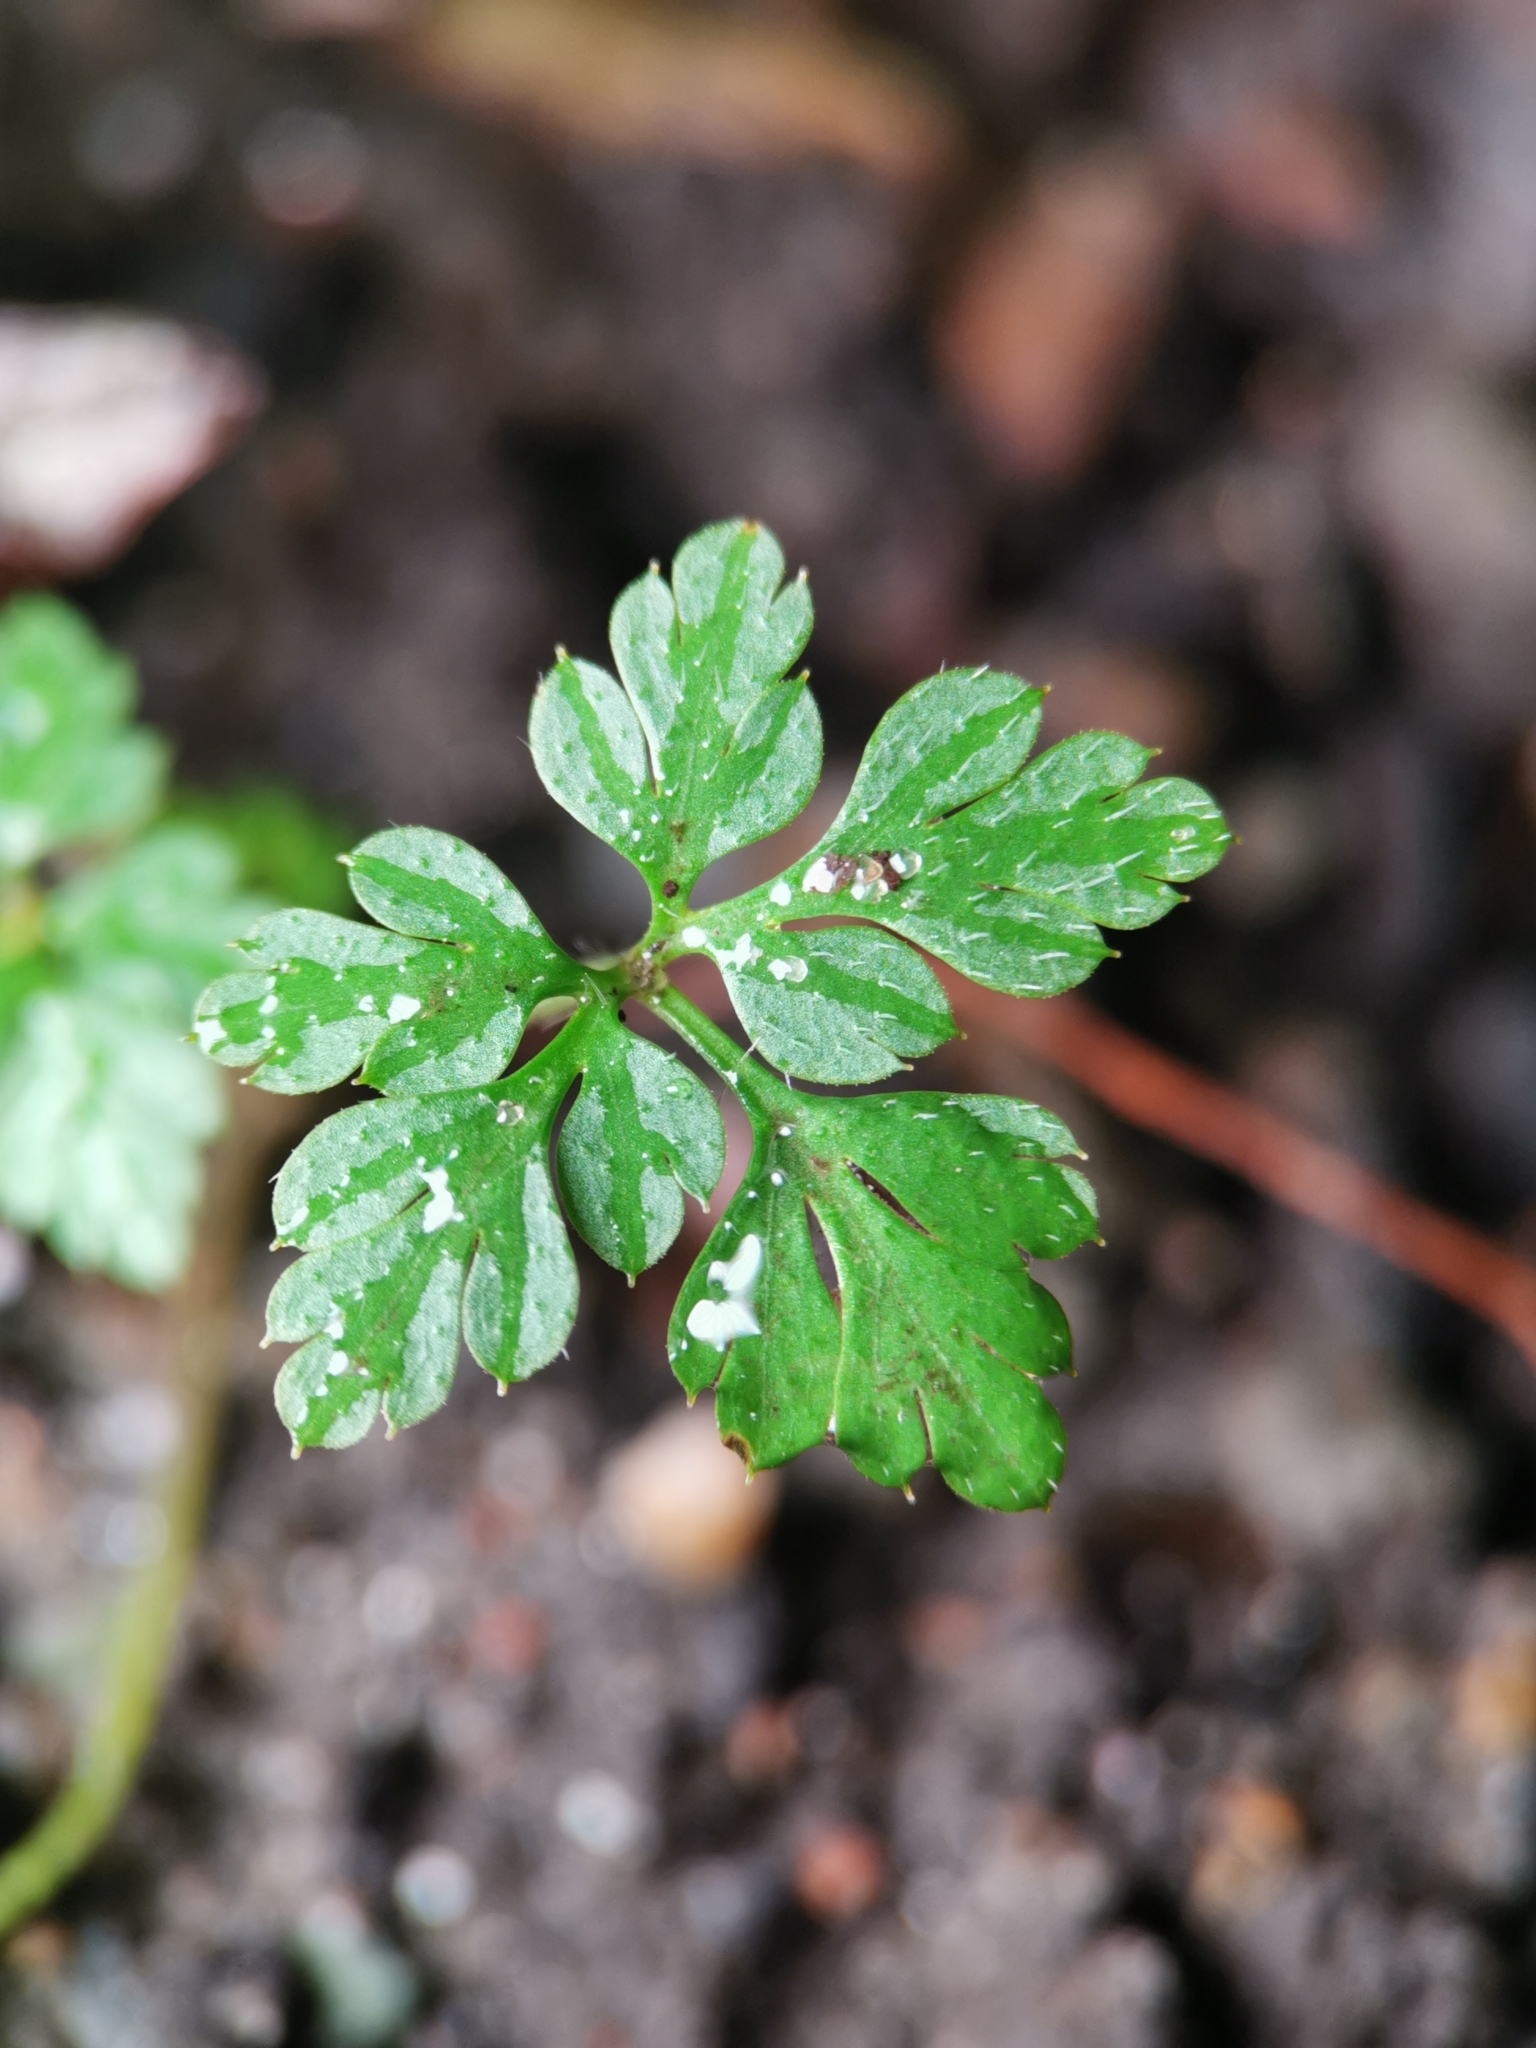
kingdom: Plantae
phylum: Tracheophyta
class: Magnoliopsida
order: Geraniales
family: Geraniaceae
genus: Geranium
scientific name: Geranium robertianum
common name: Herb-robert
